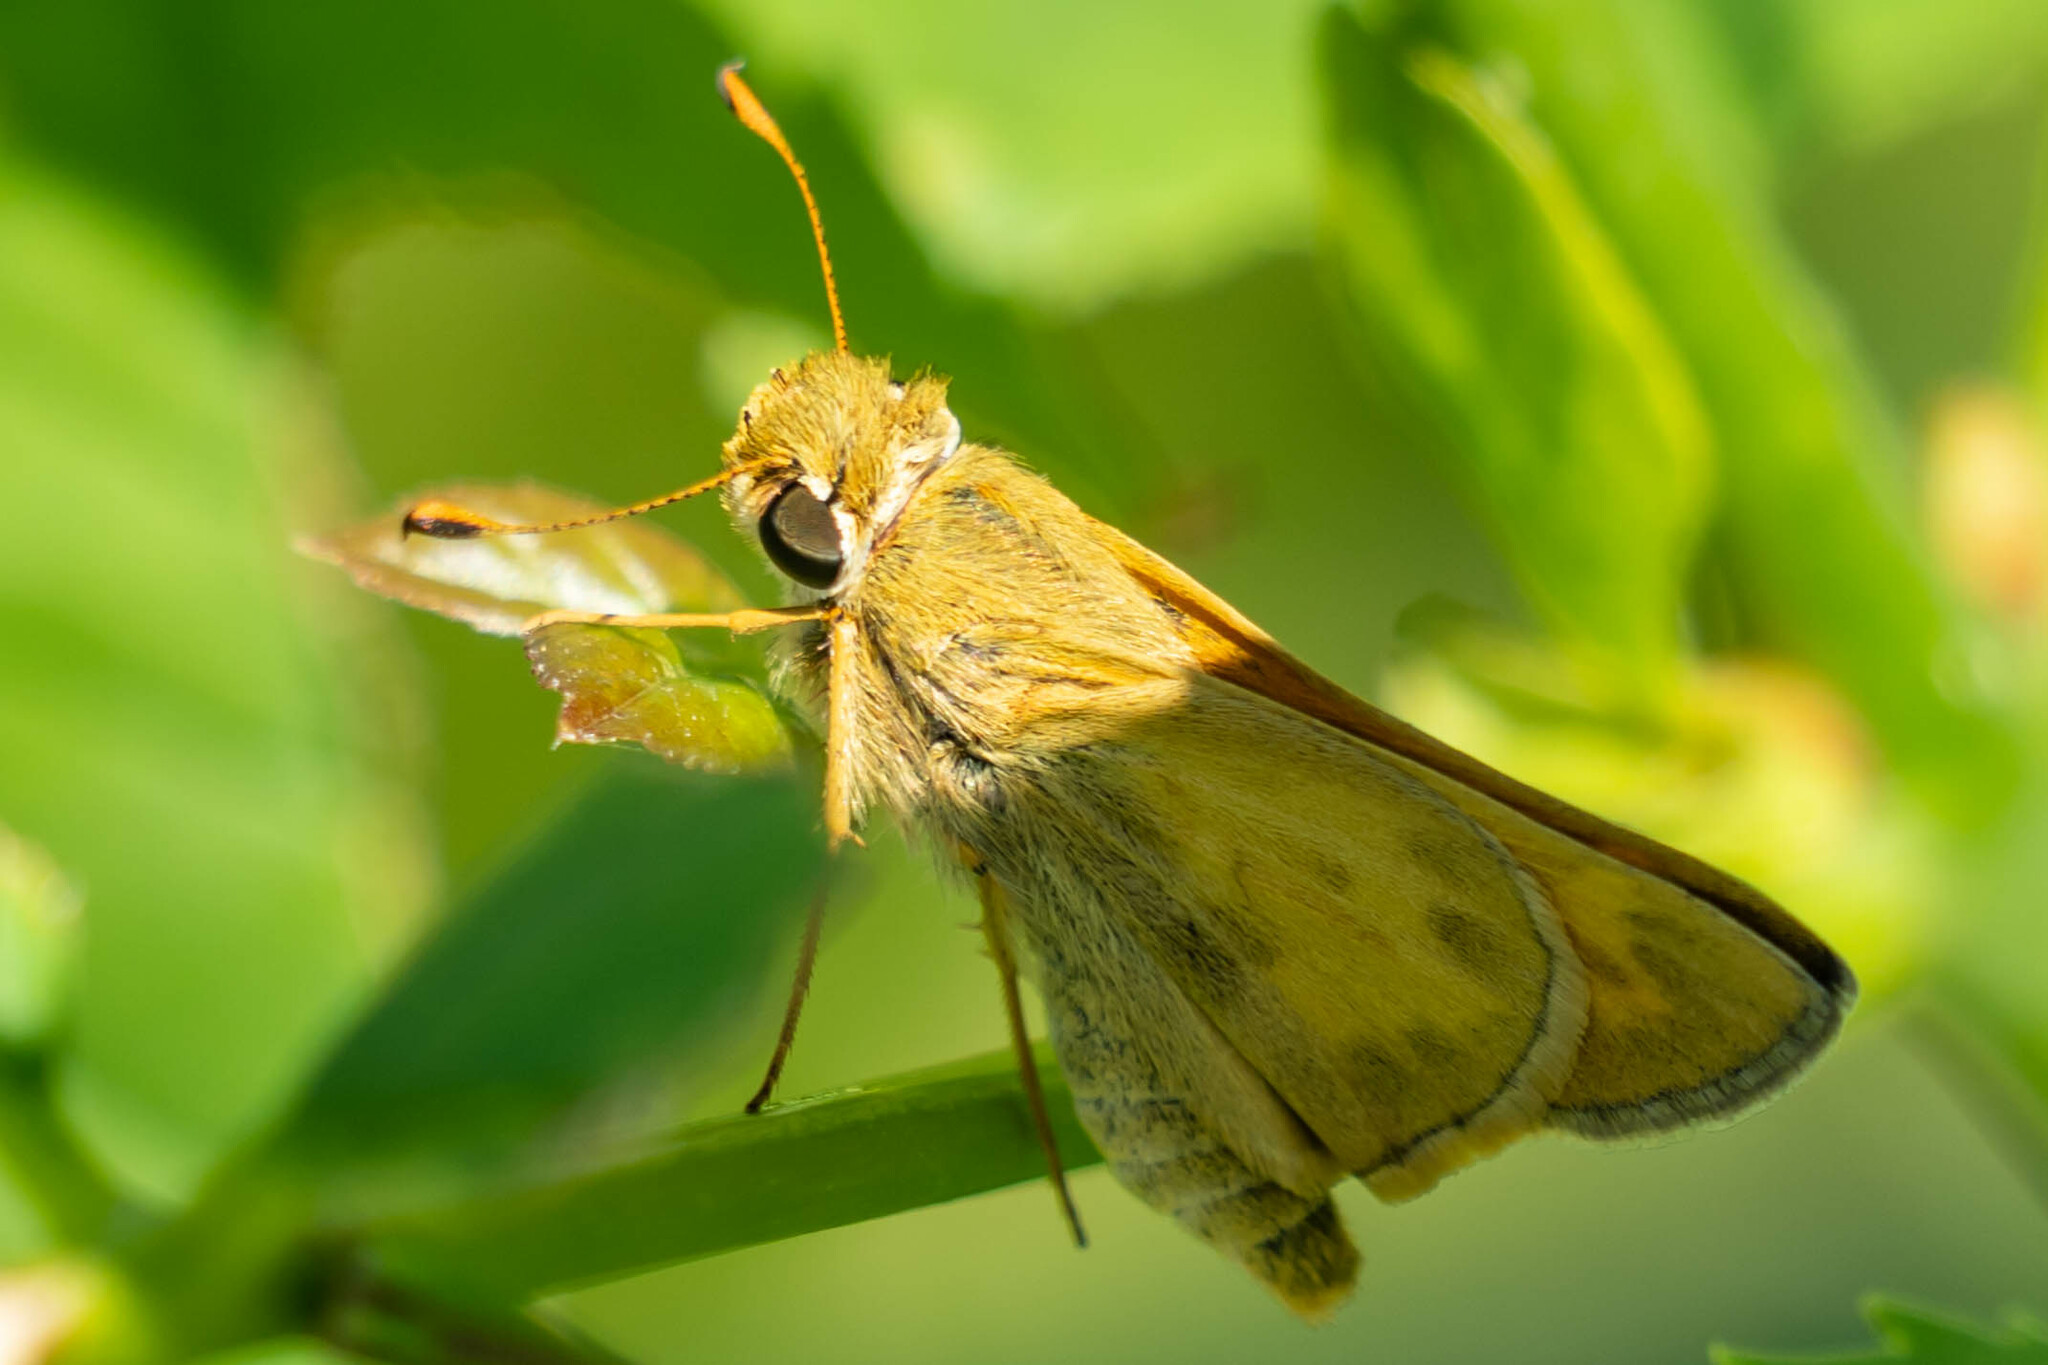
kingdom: Animalia
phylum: Arthropoda
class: Insecta
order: Lepidoptera
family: Hesperiidae
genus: Atalopedes
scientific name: Atalopedes
